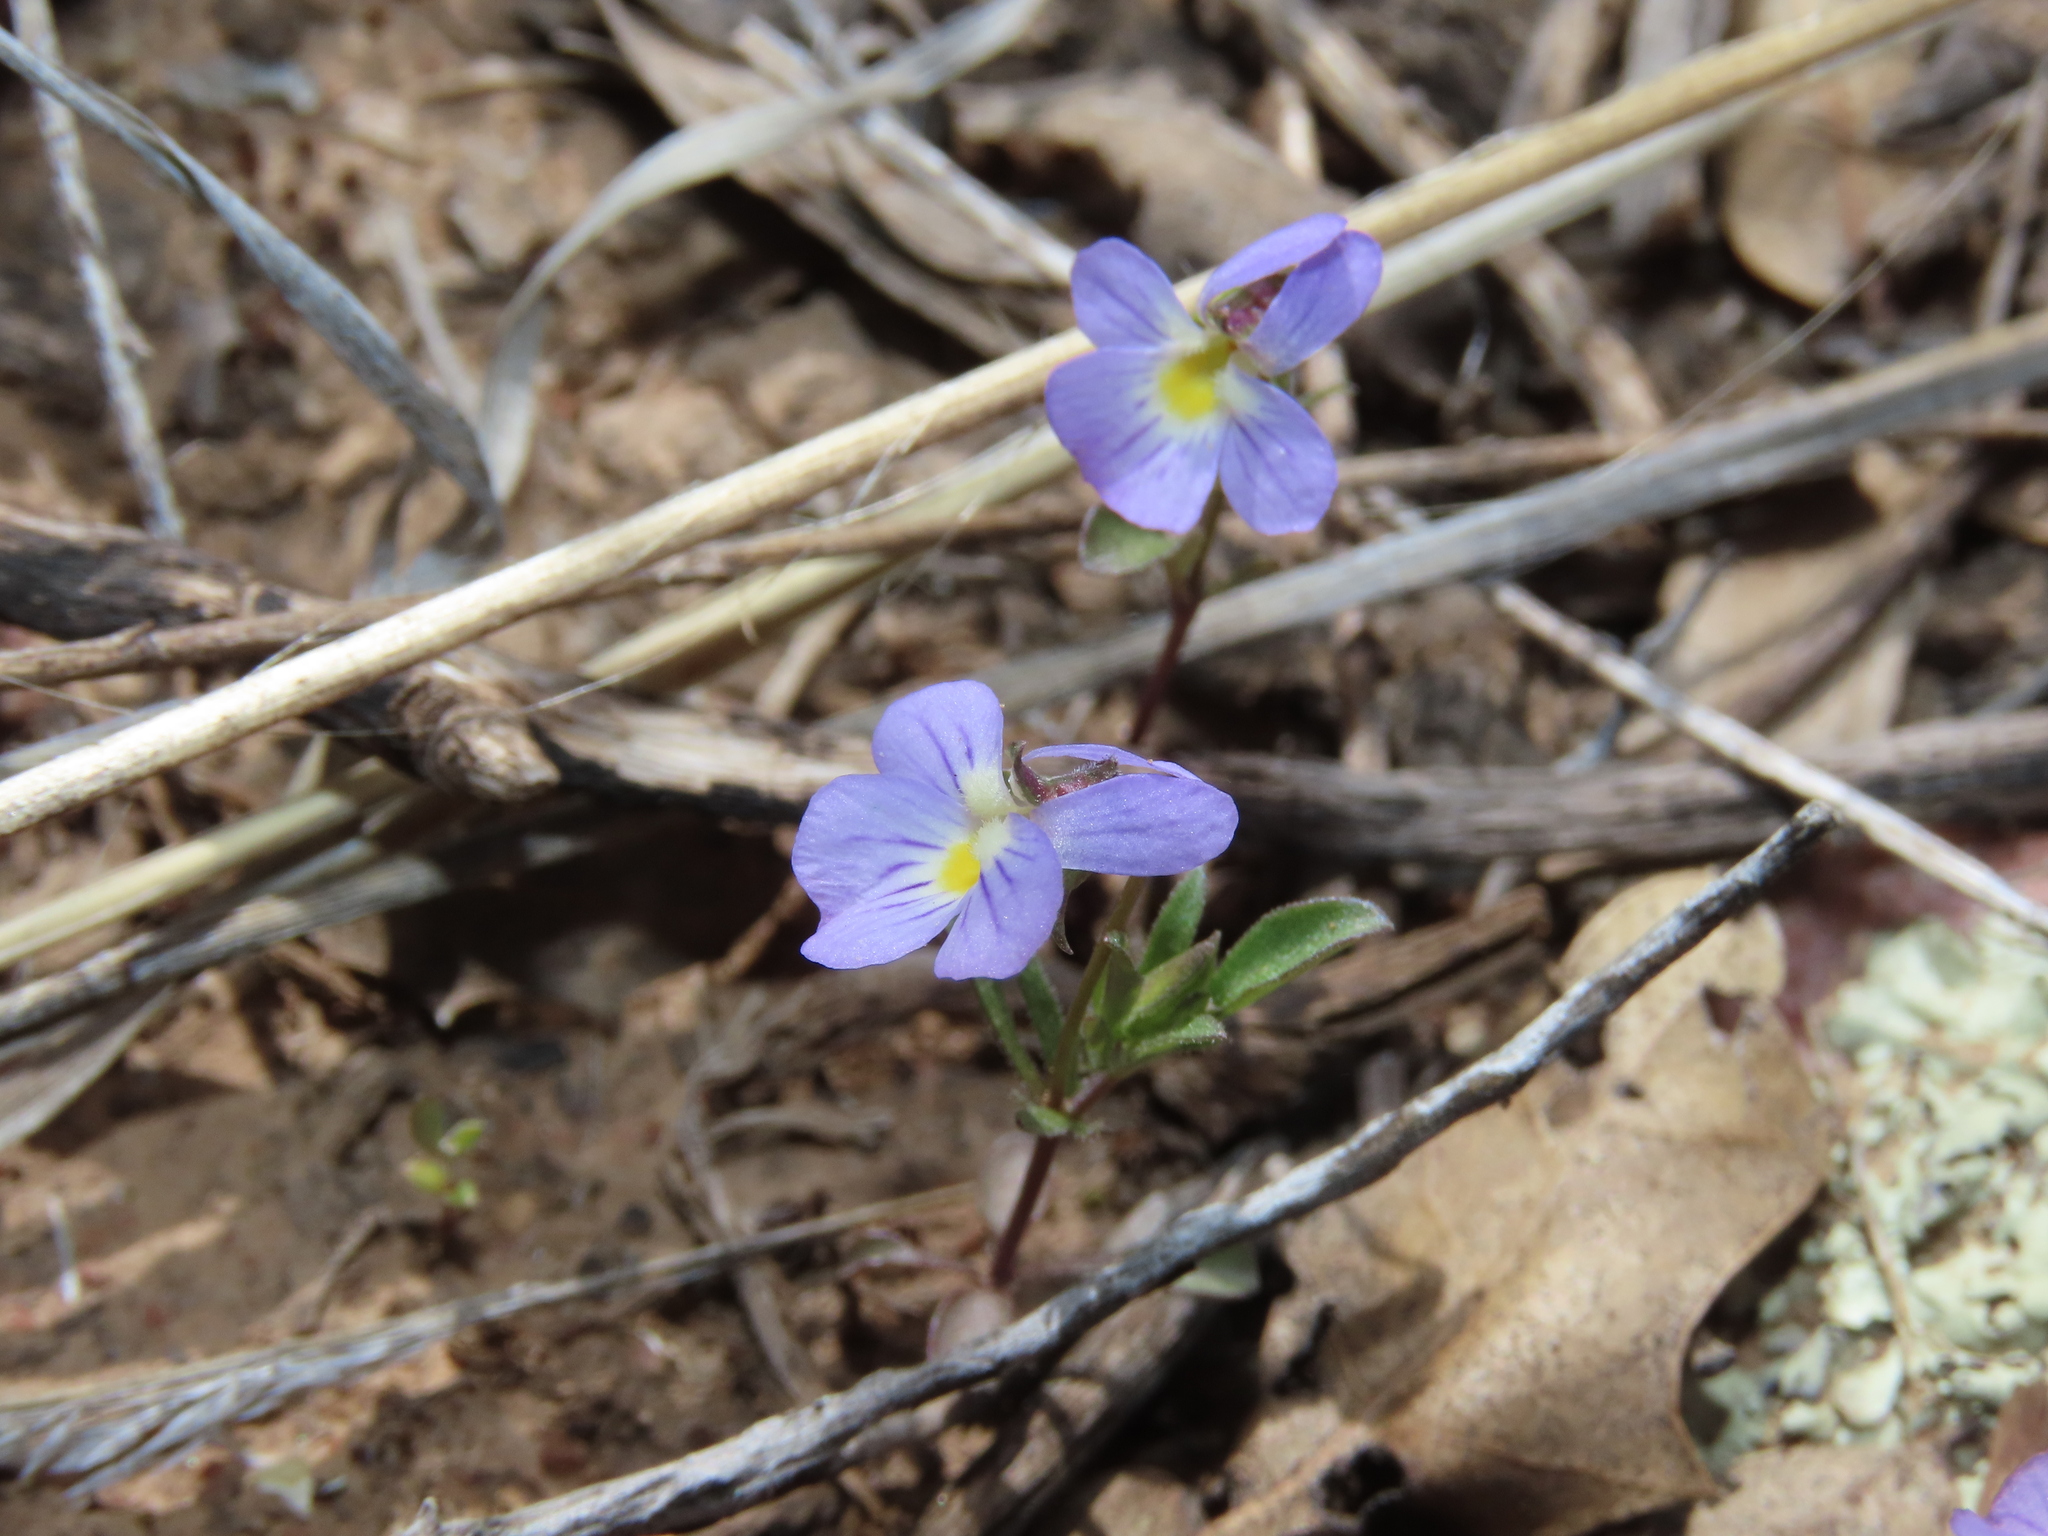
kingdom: Plantae
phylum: Tracheophyta
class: Magnoliopsida
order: Malpighiales
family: Violaceae
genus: Viola
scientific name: Viola rafinesquei
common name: American field pansy
